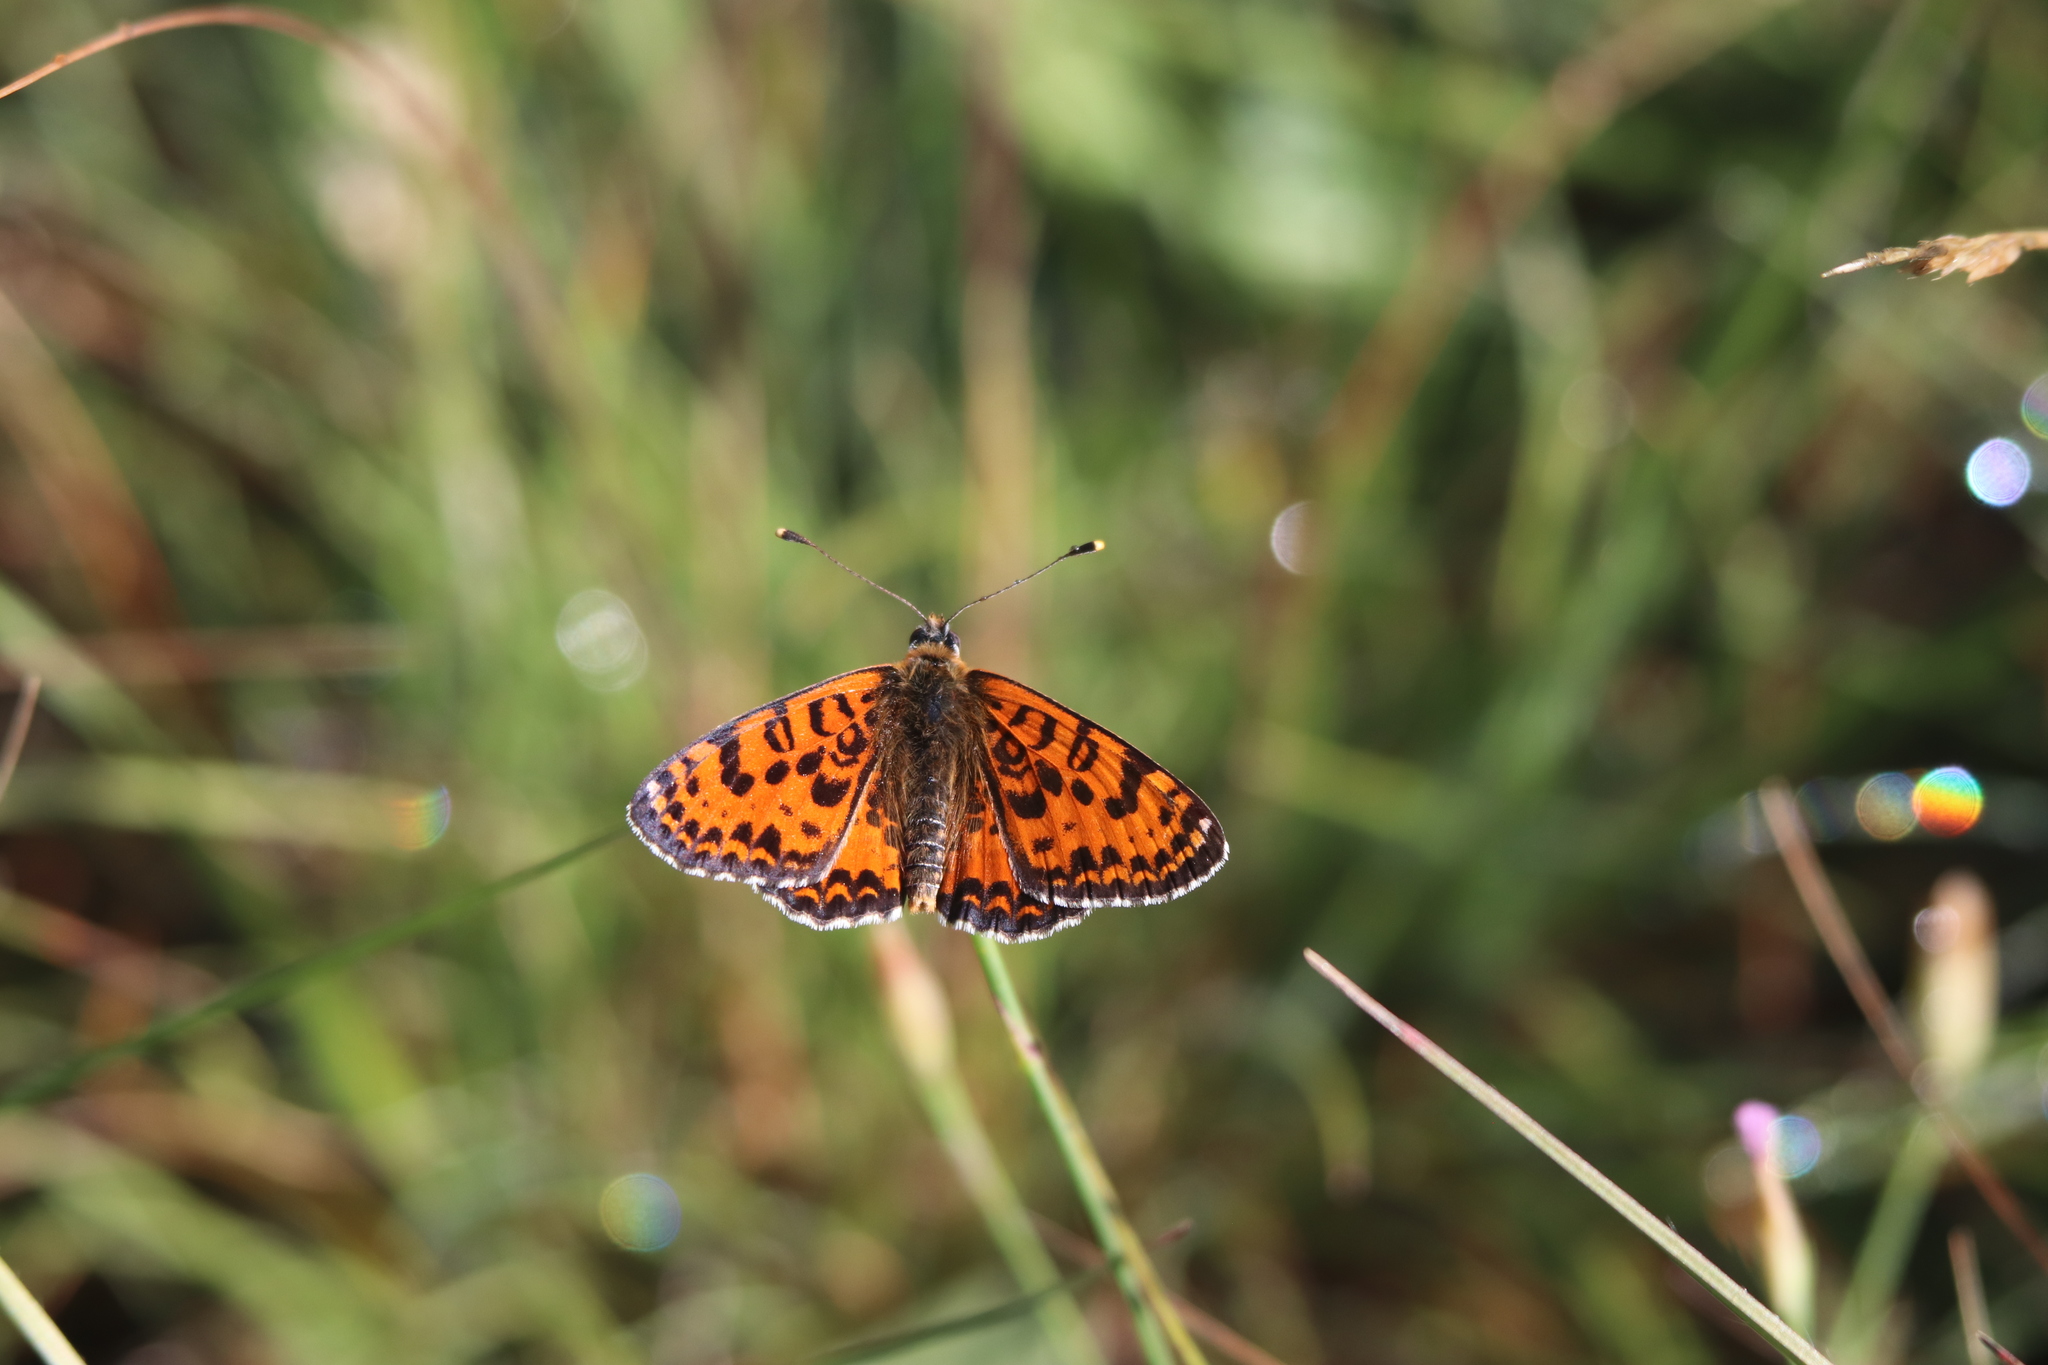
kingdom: Animalia
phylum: Arthropoda
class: Insecta
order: Lepidoptera
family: Nymphalidae
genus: Melitaea
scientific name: Melitaea didyma
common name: Spotted fritillary
